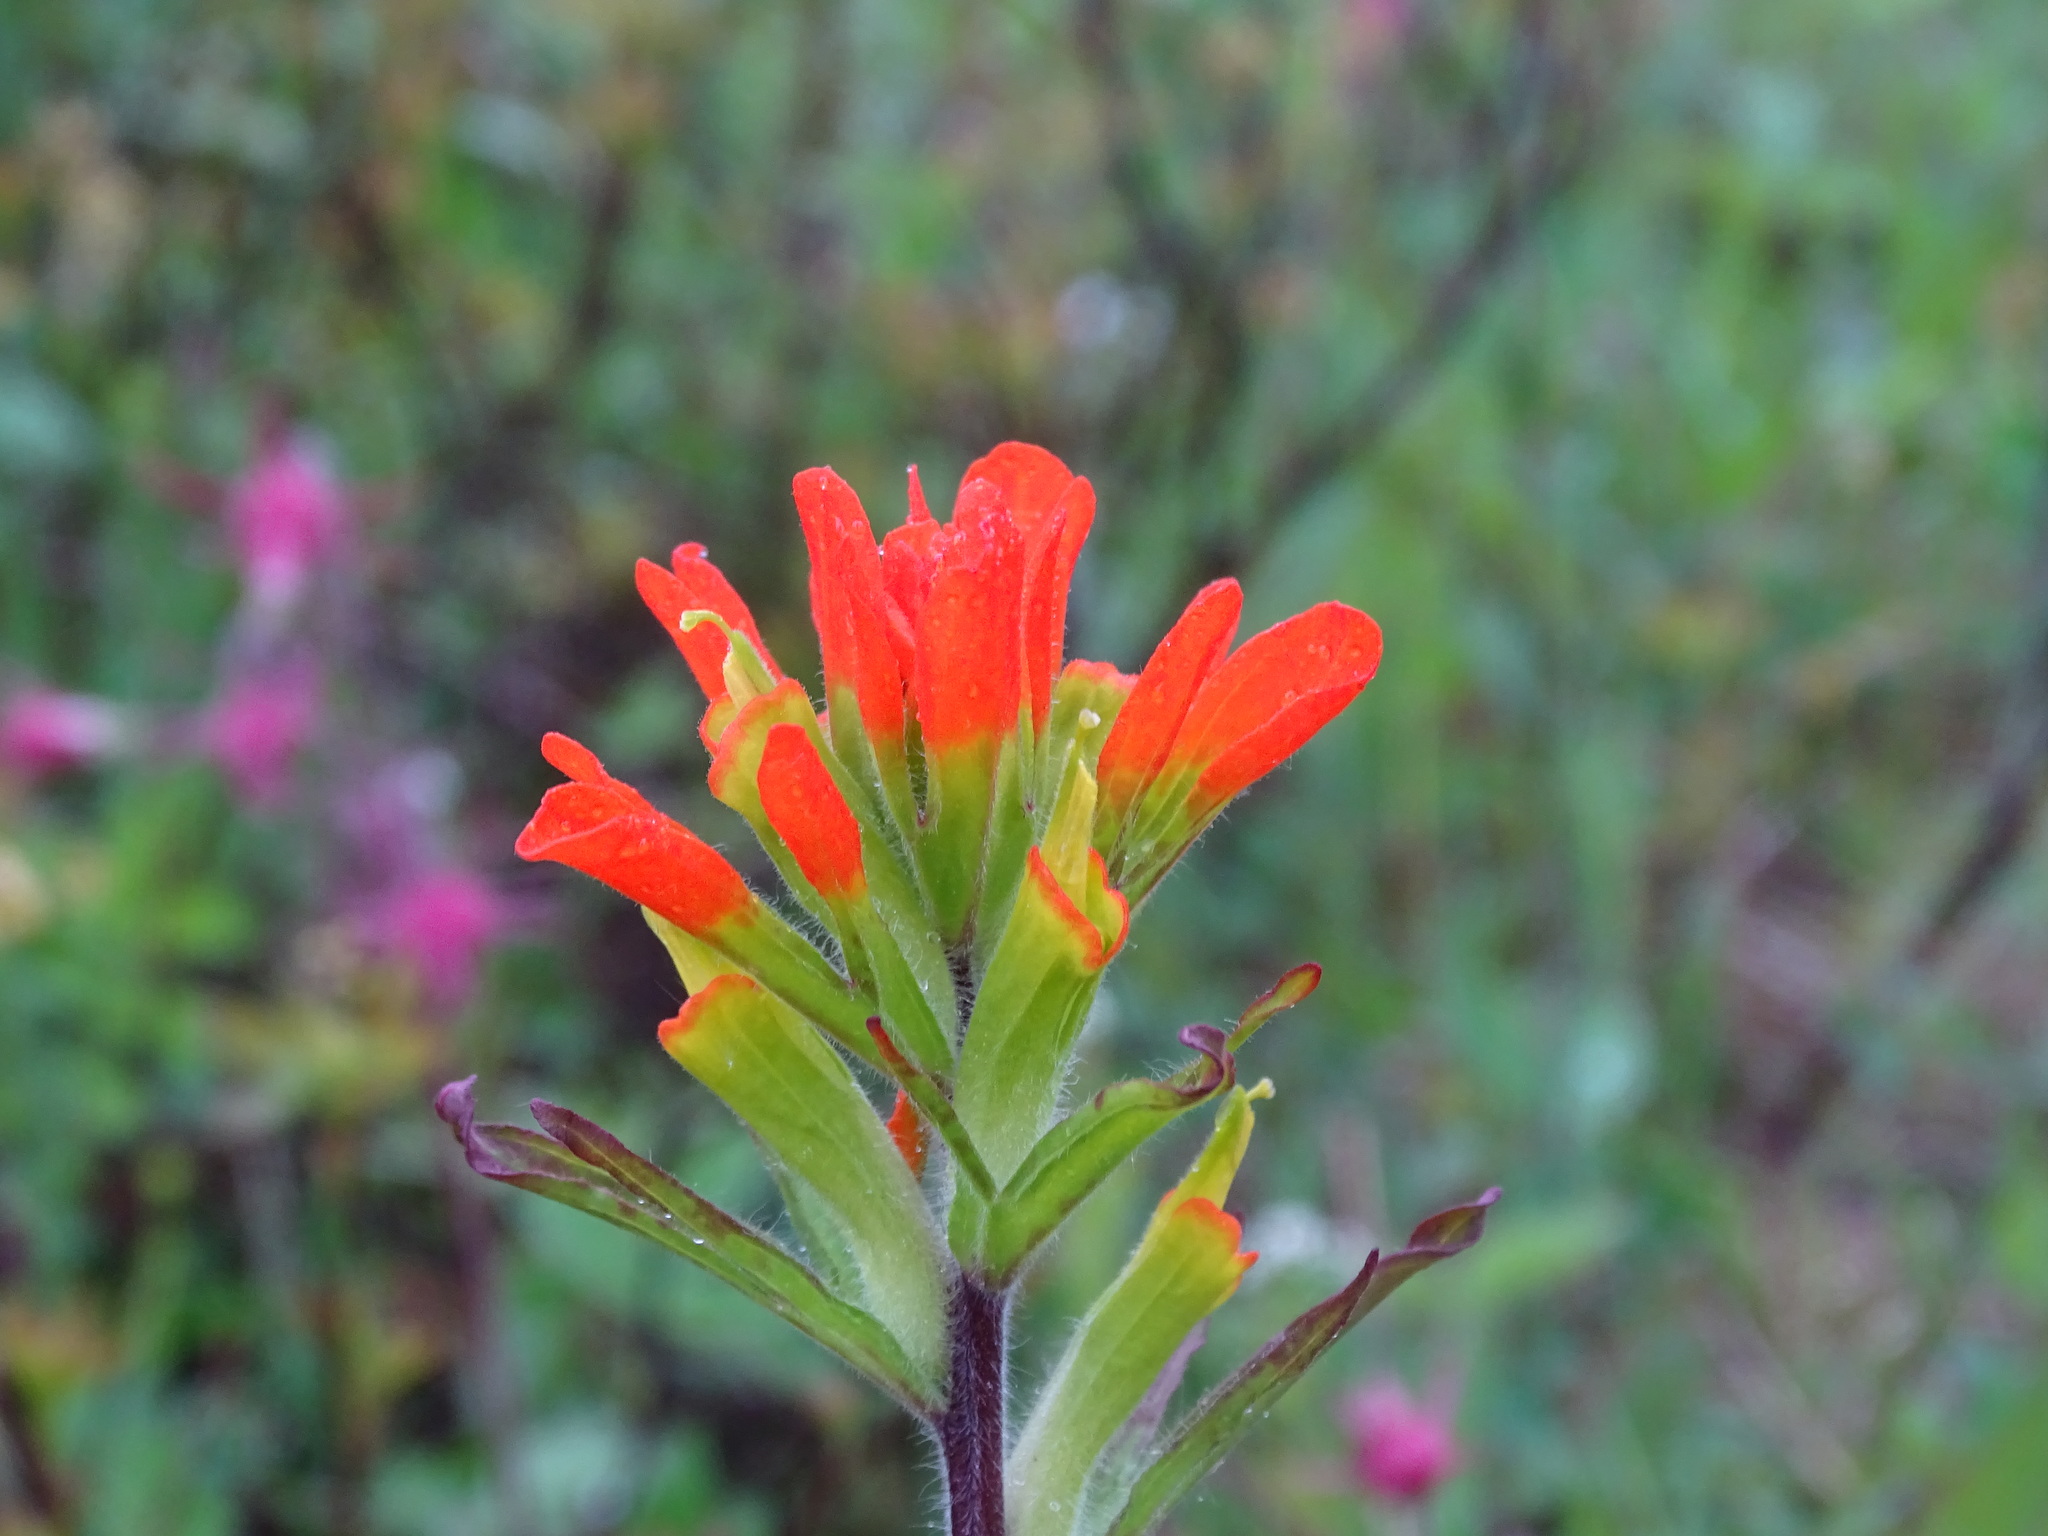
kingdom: Plantae
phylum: Tracheophyta
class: Magnoliopsida
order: Lamiales
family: Orobanchaceae
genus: Castilleja
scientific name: Castilleja coccinea
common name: Scarlet paintbrush
